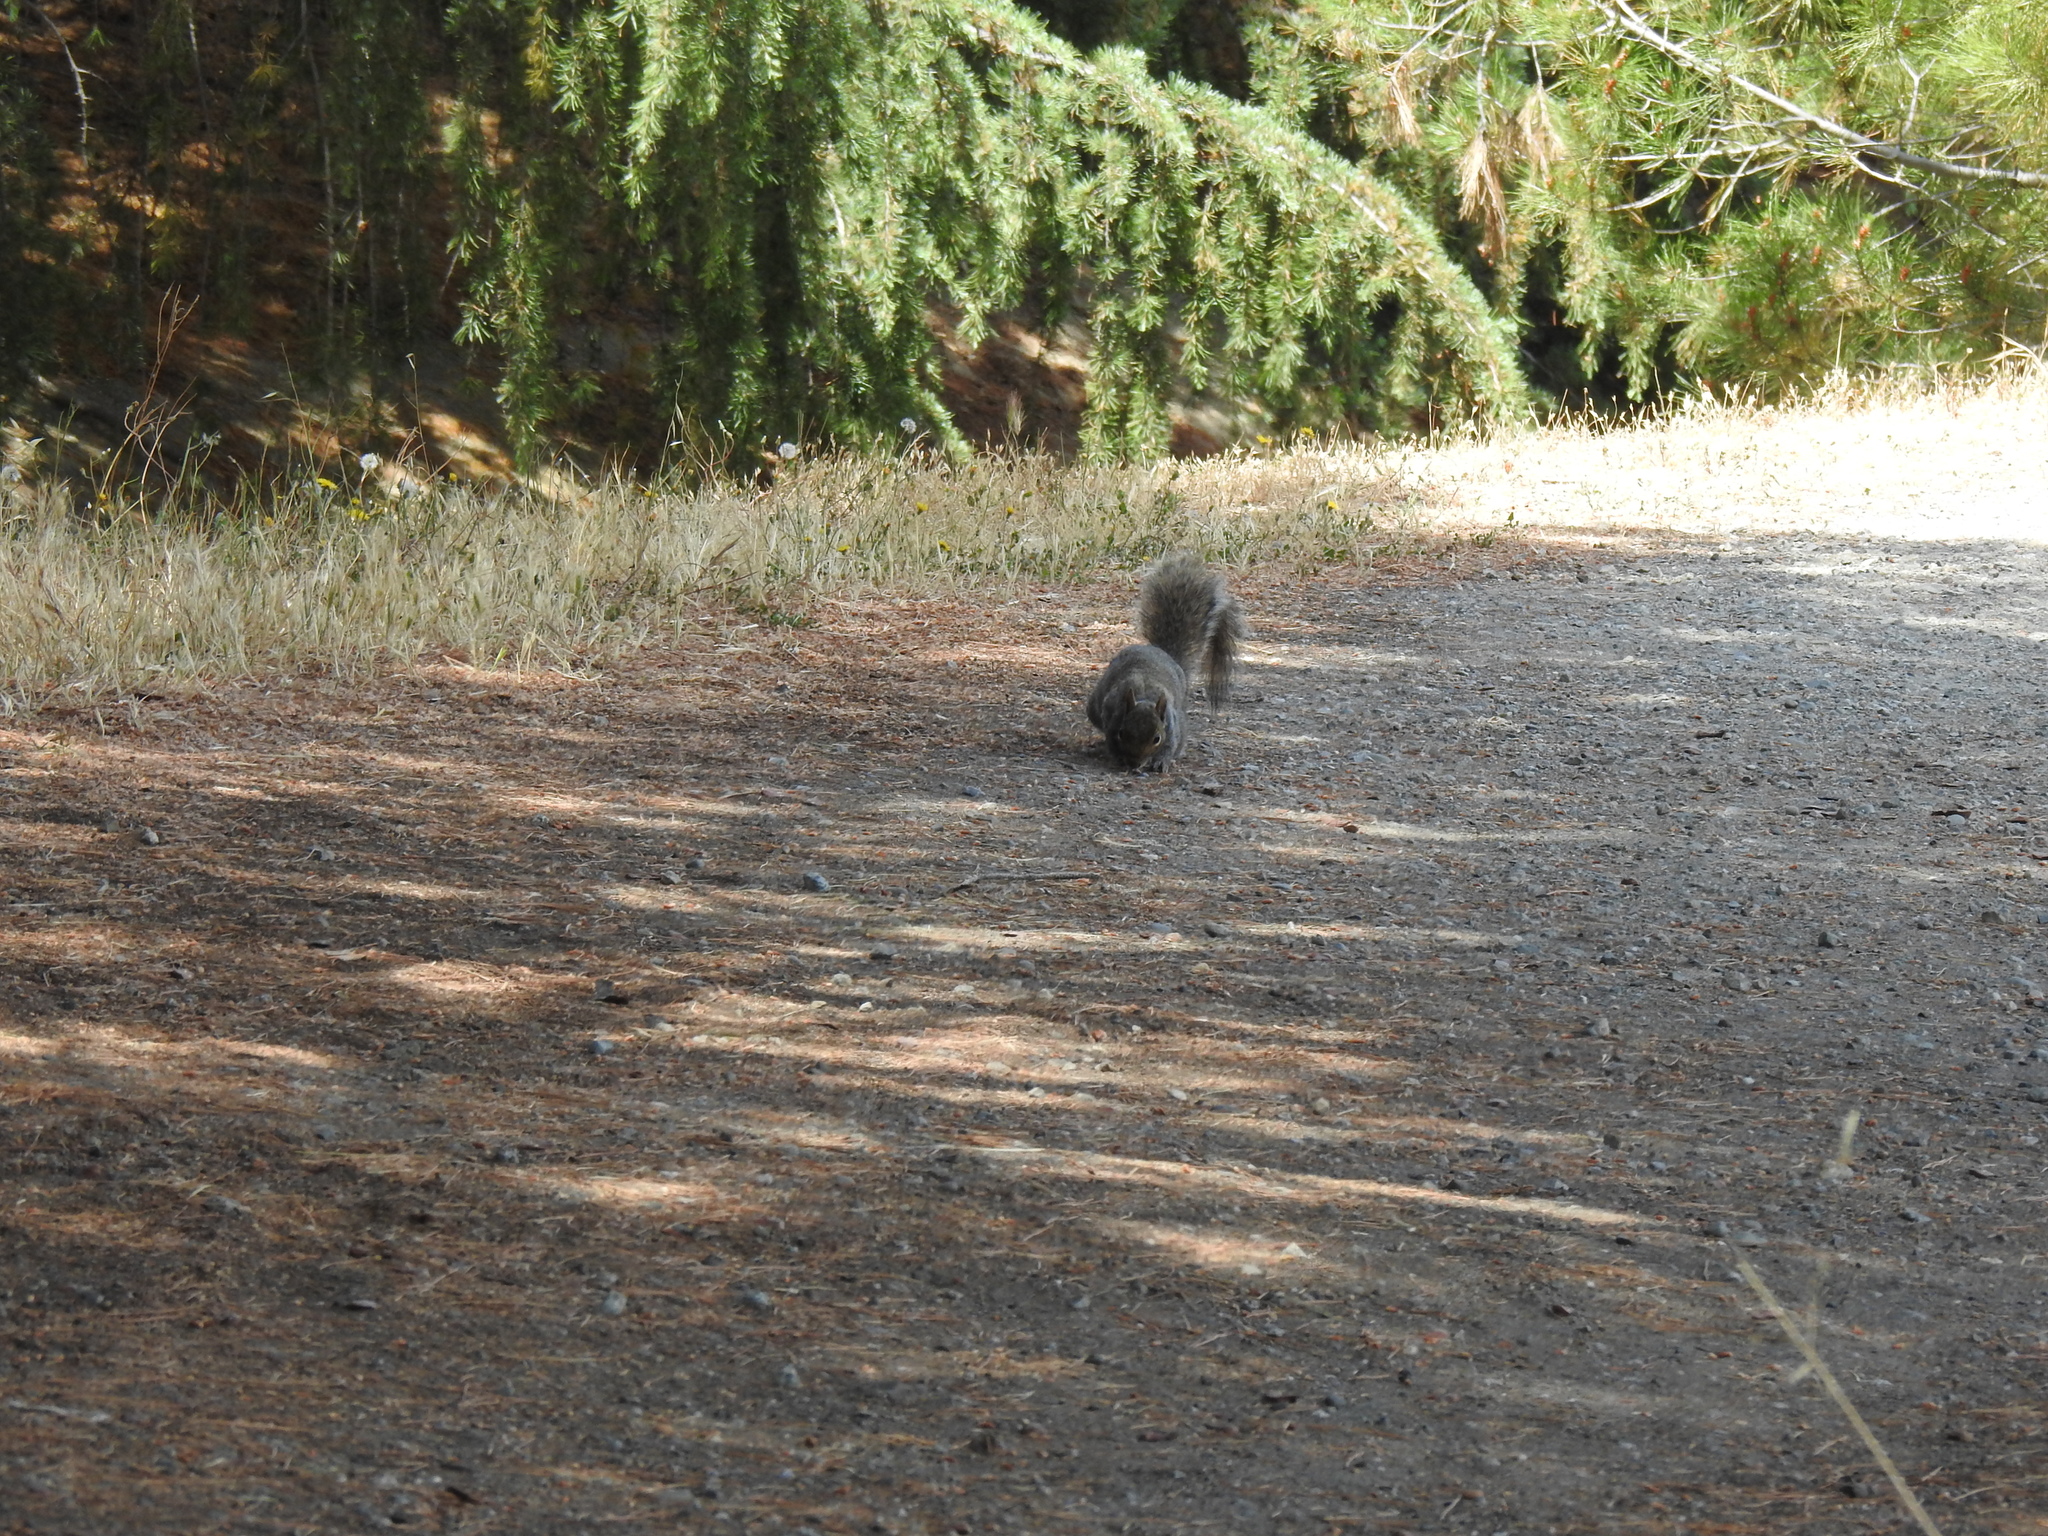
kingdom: Animalia
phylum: Chordata
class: Mammalia
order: Rodentia
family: Sciuridae
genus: Sciurus
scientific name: Sciurus carolinensis
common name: Eastern gray squirrel
